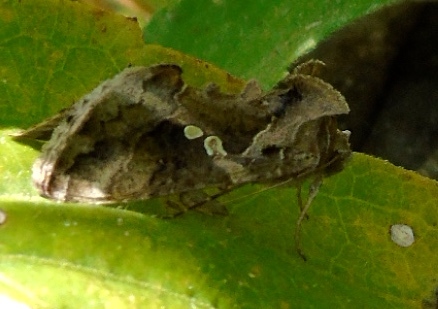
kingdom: Animalia
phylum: Arthropoda
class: Insecta
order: Lepidoptera
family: Noctuidae
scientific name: Noctuidae
